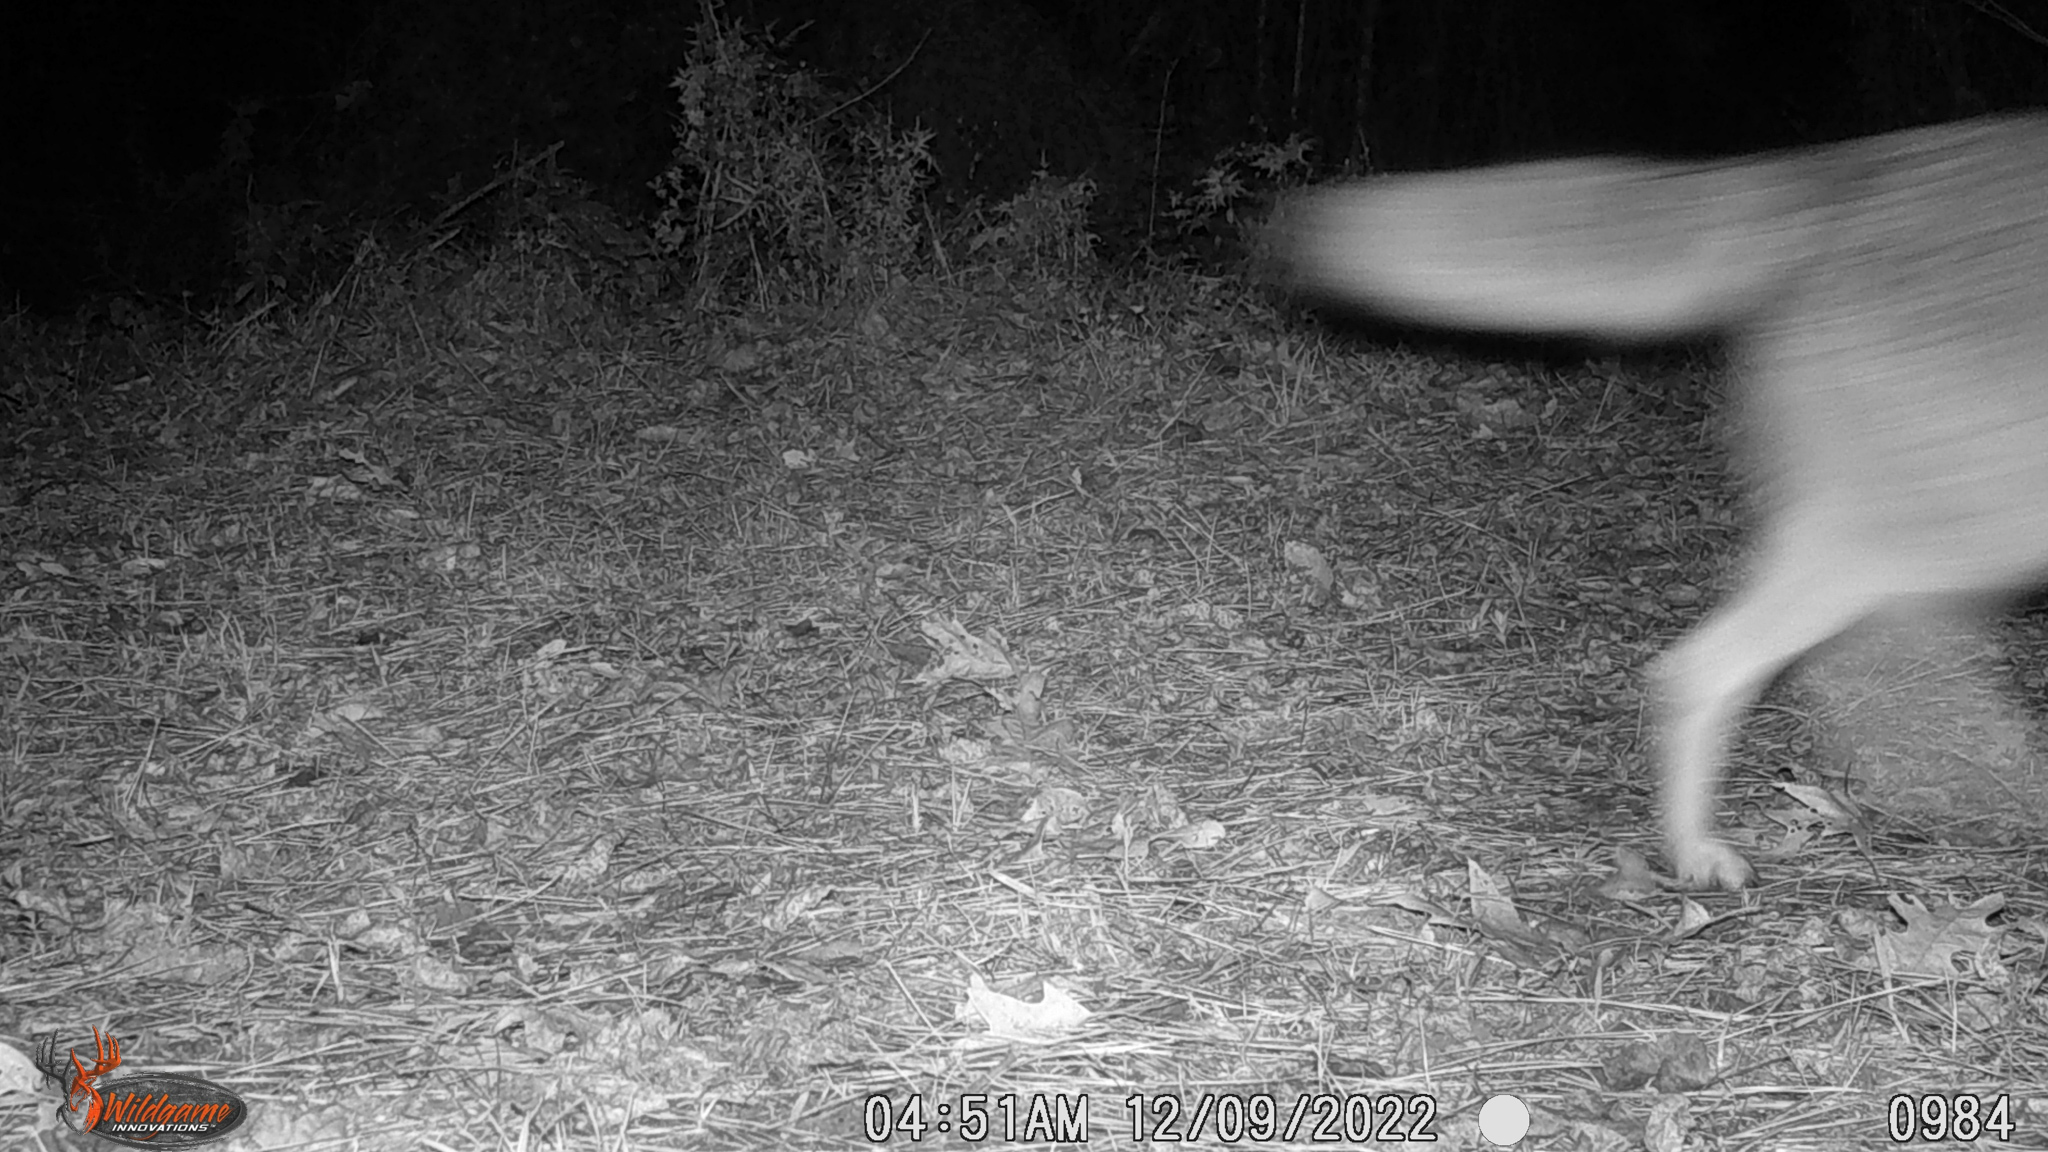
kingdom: Animalia
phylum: Chordata
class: Mammalia
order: Carnivora
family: Canidae
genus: Canis
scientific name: Canis latrans
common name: Coyote
